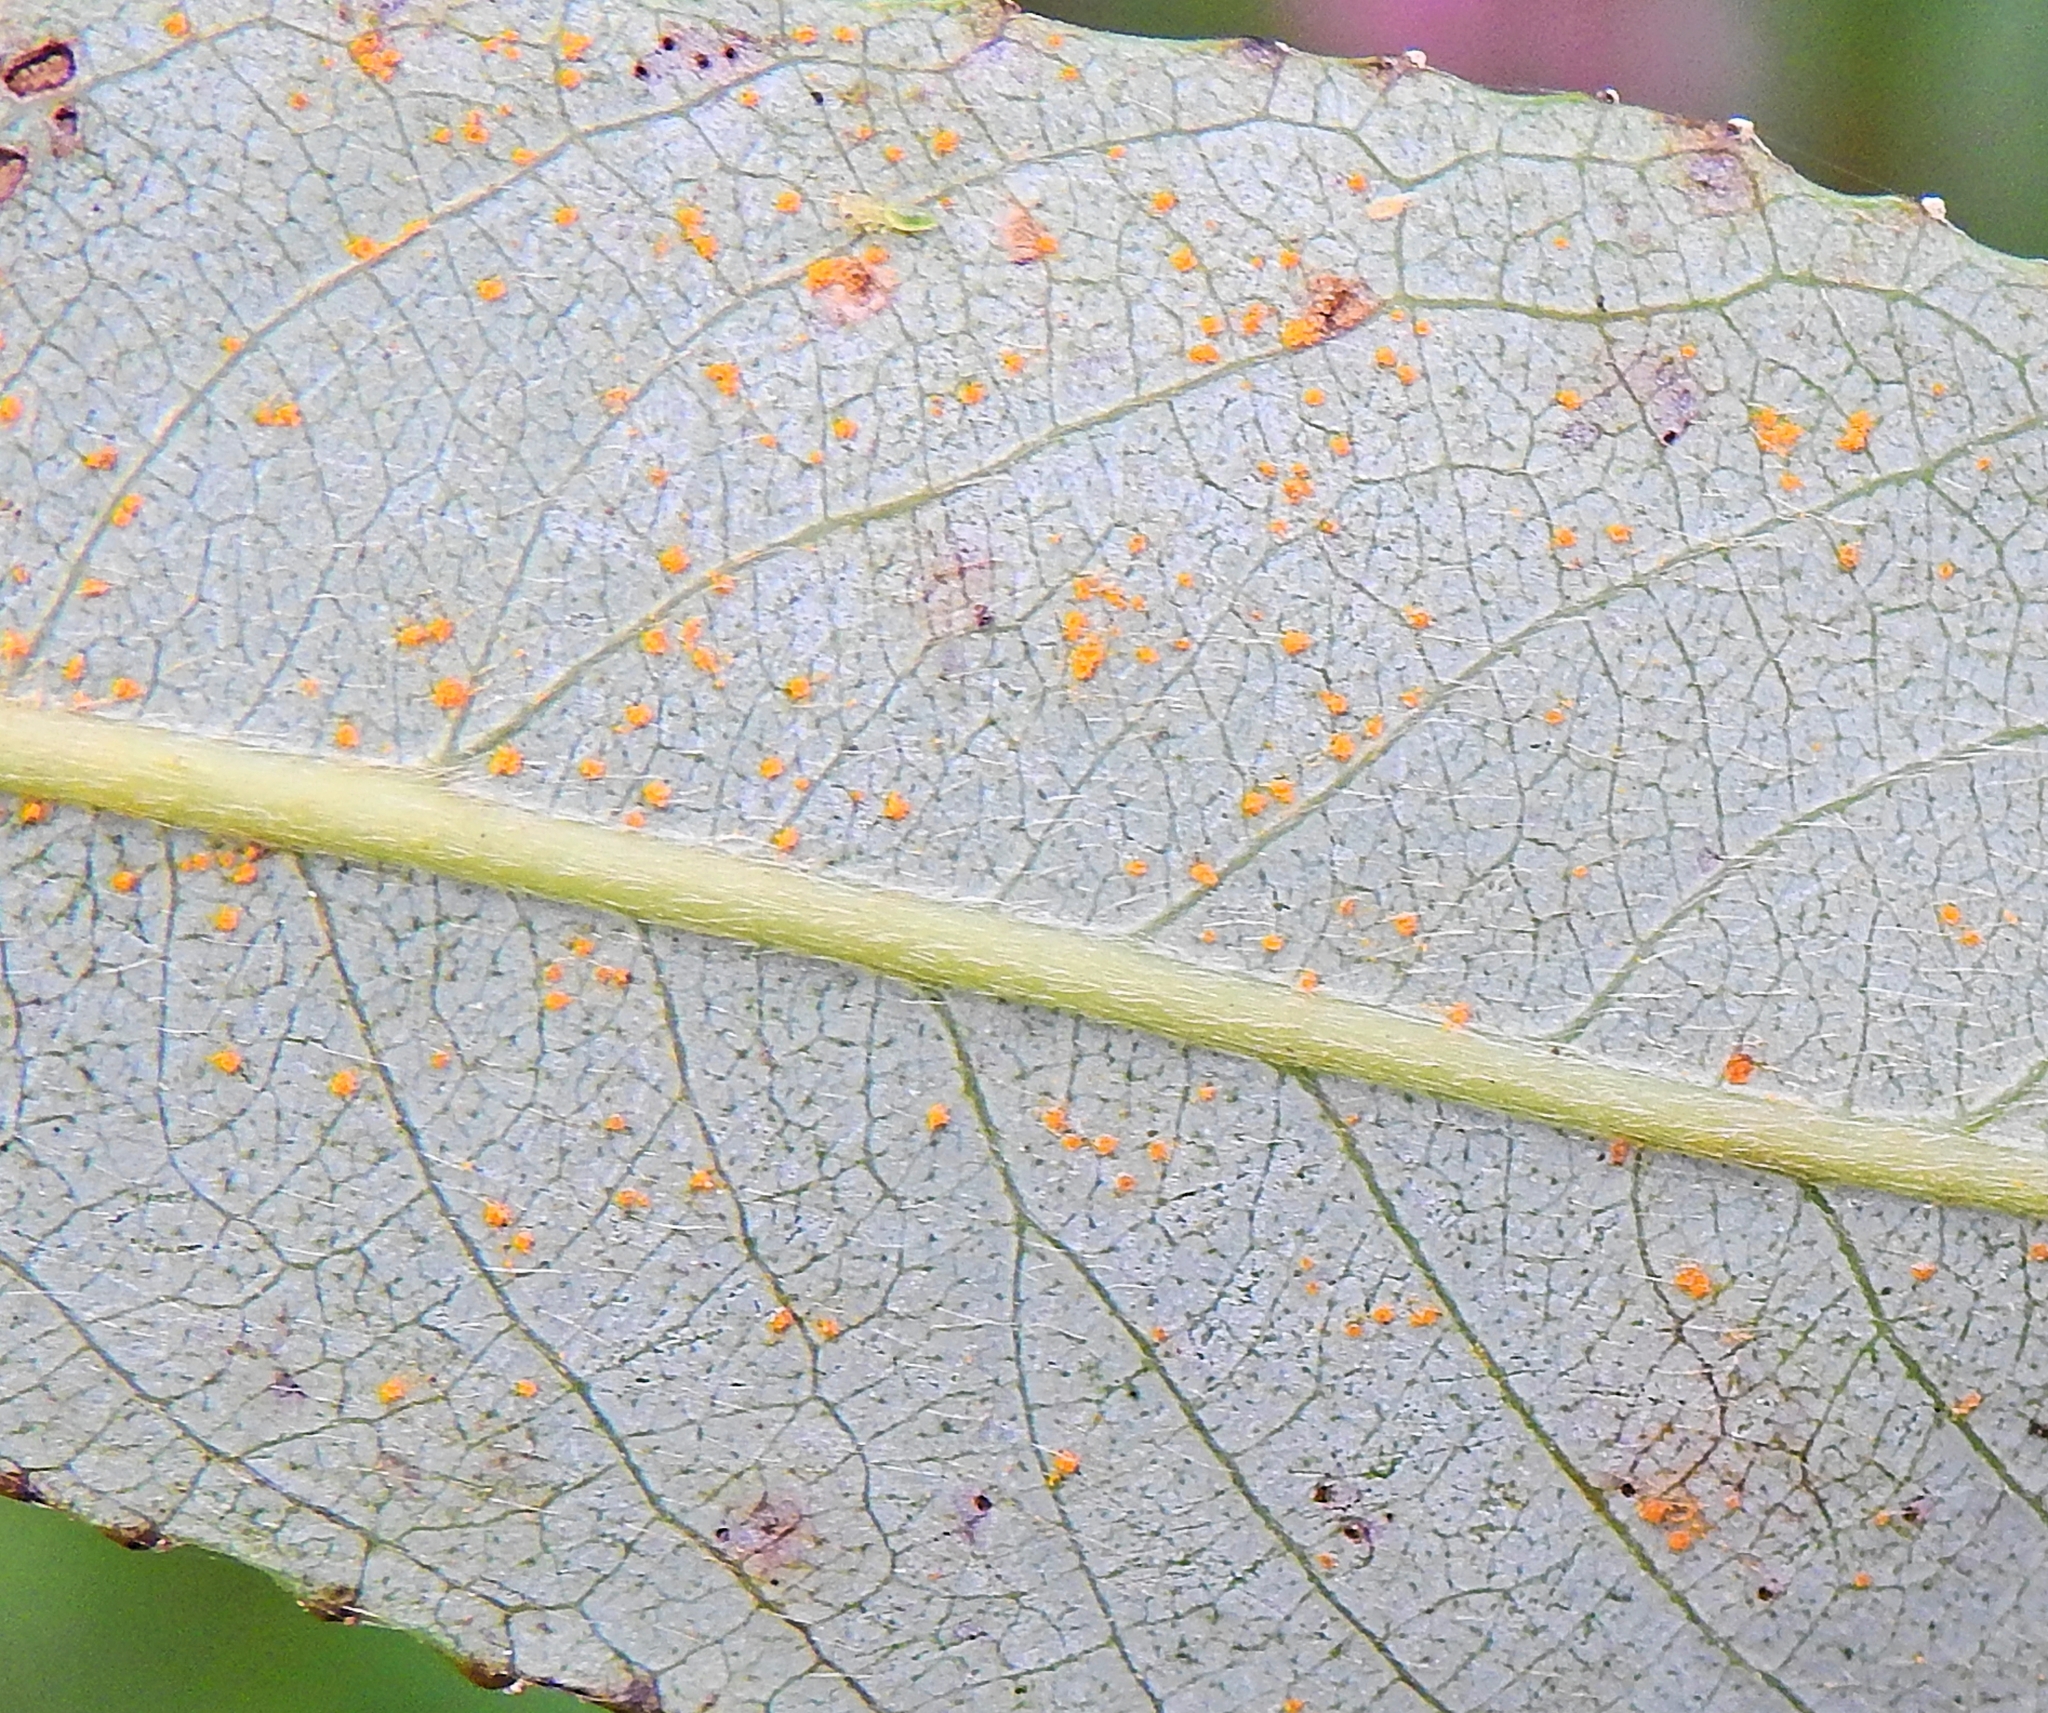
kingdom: Fungi
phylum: Basidiomycota
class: Pucciniomycetes
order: Pucciniales
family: Melampsoraceae
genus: Melampsora
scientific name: Melampsora
